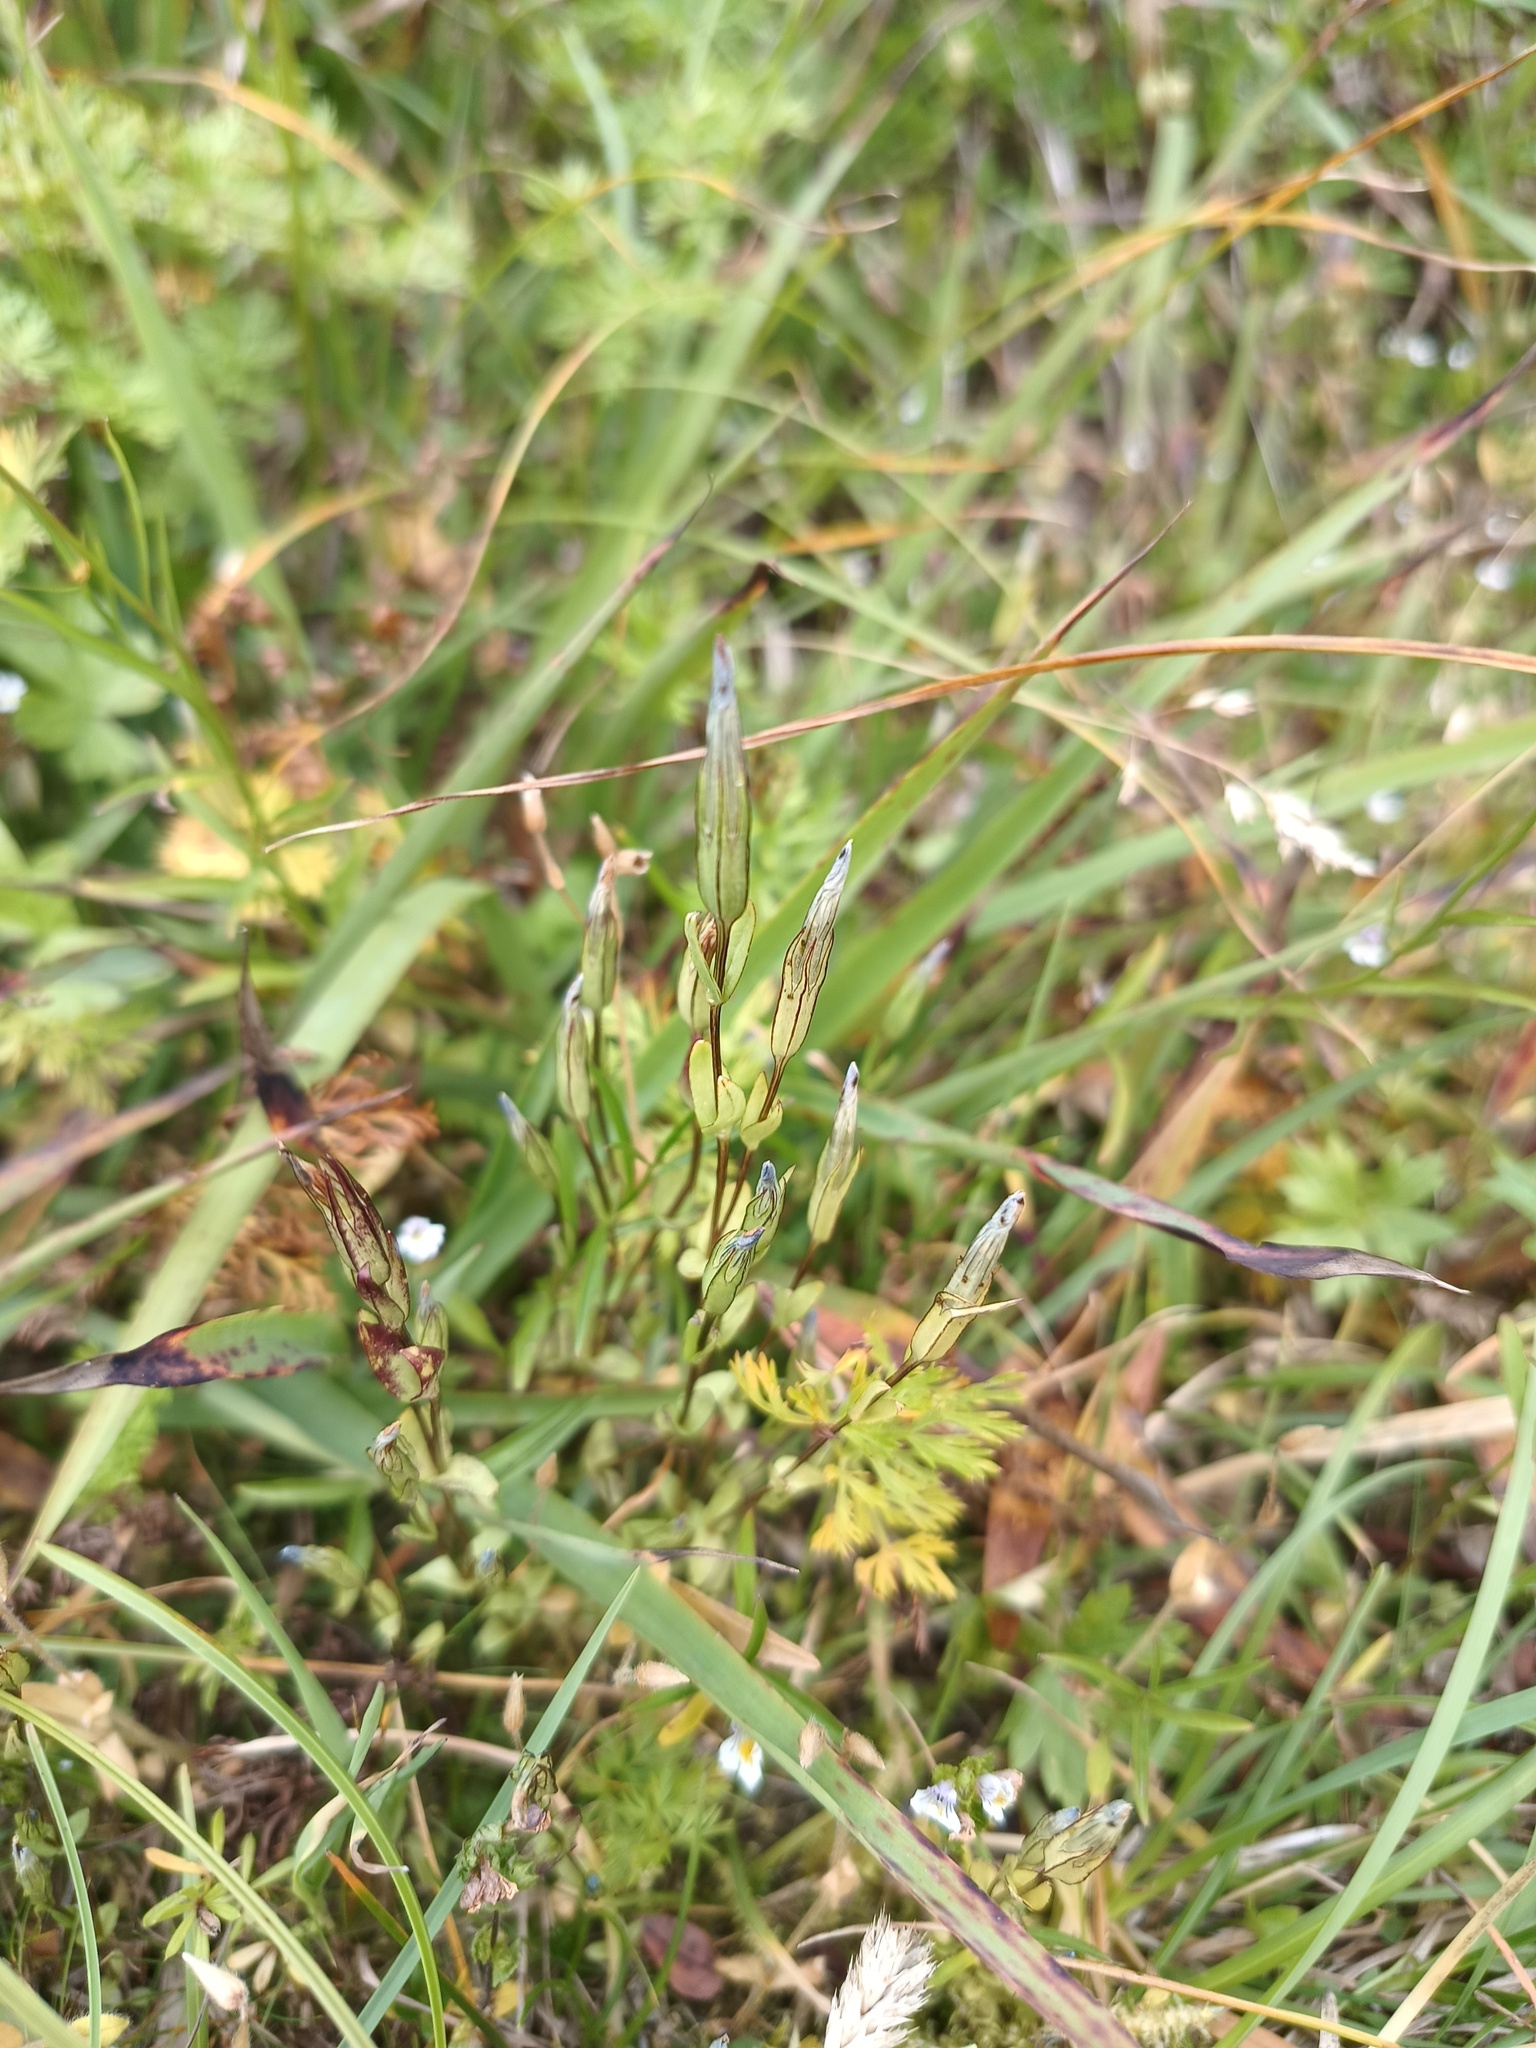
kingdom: Plantae
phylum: Tracheophyta
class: Magnoliopsida
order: Gentianales
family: Gentianaceae
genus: Gentiana
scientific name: Gentiana nivalis
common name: Alpine gentian
